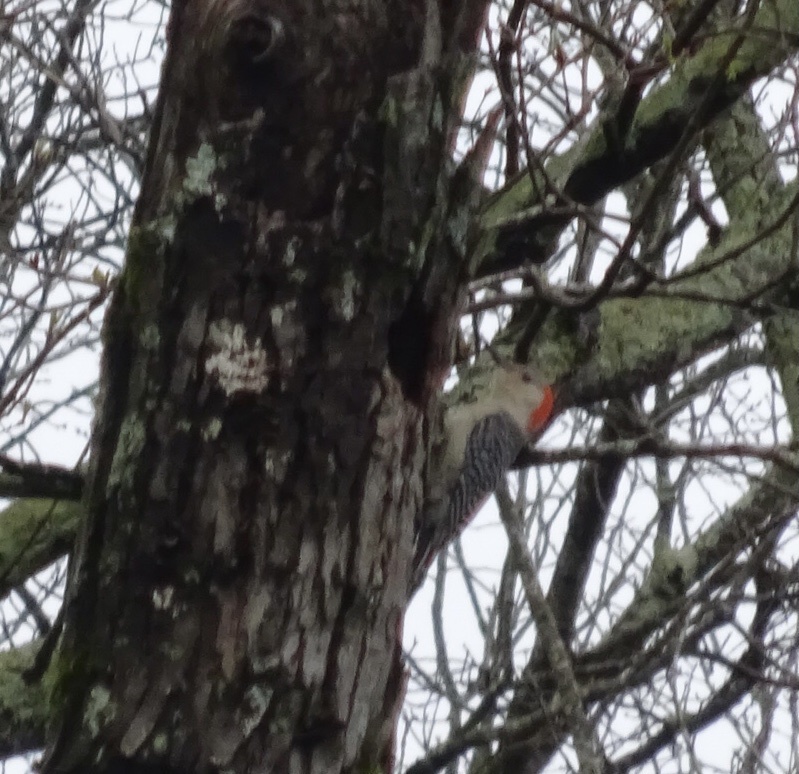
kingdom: Animalia
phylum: Chordata
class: Aves
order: Piciformes
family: Picidae
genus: Melanerpes
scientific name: Melanerpes carolinus
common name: Red-bellied woodpecker
